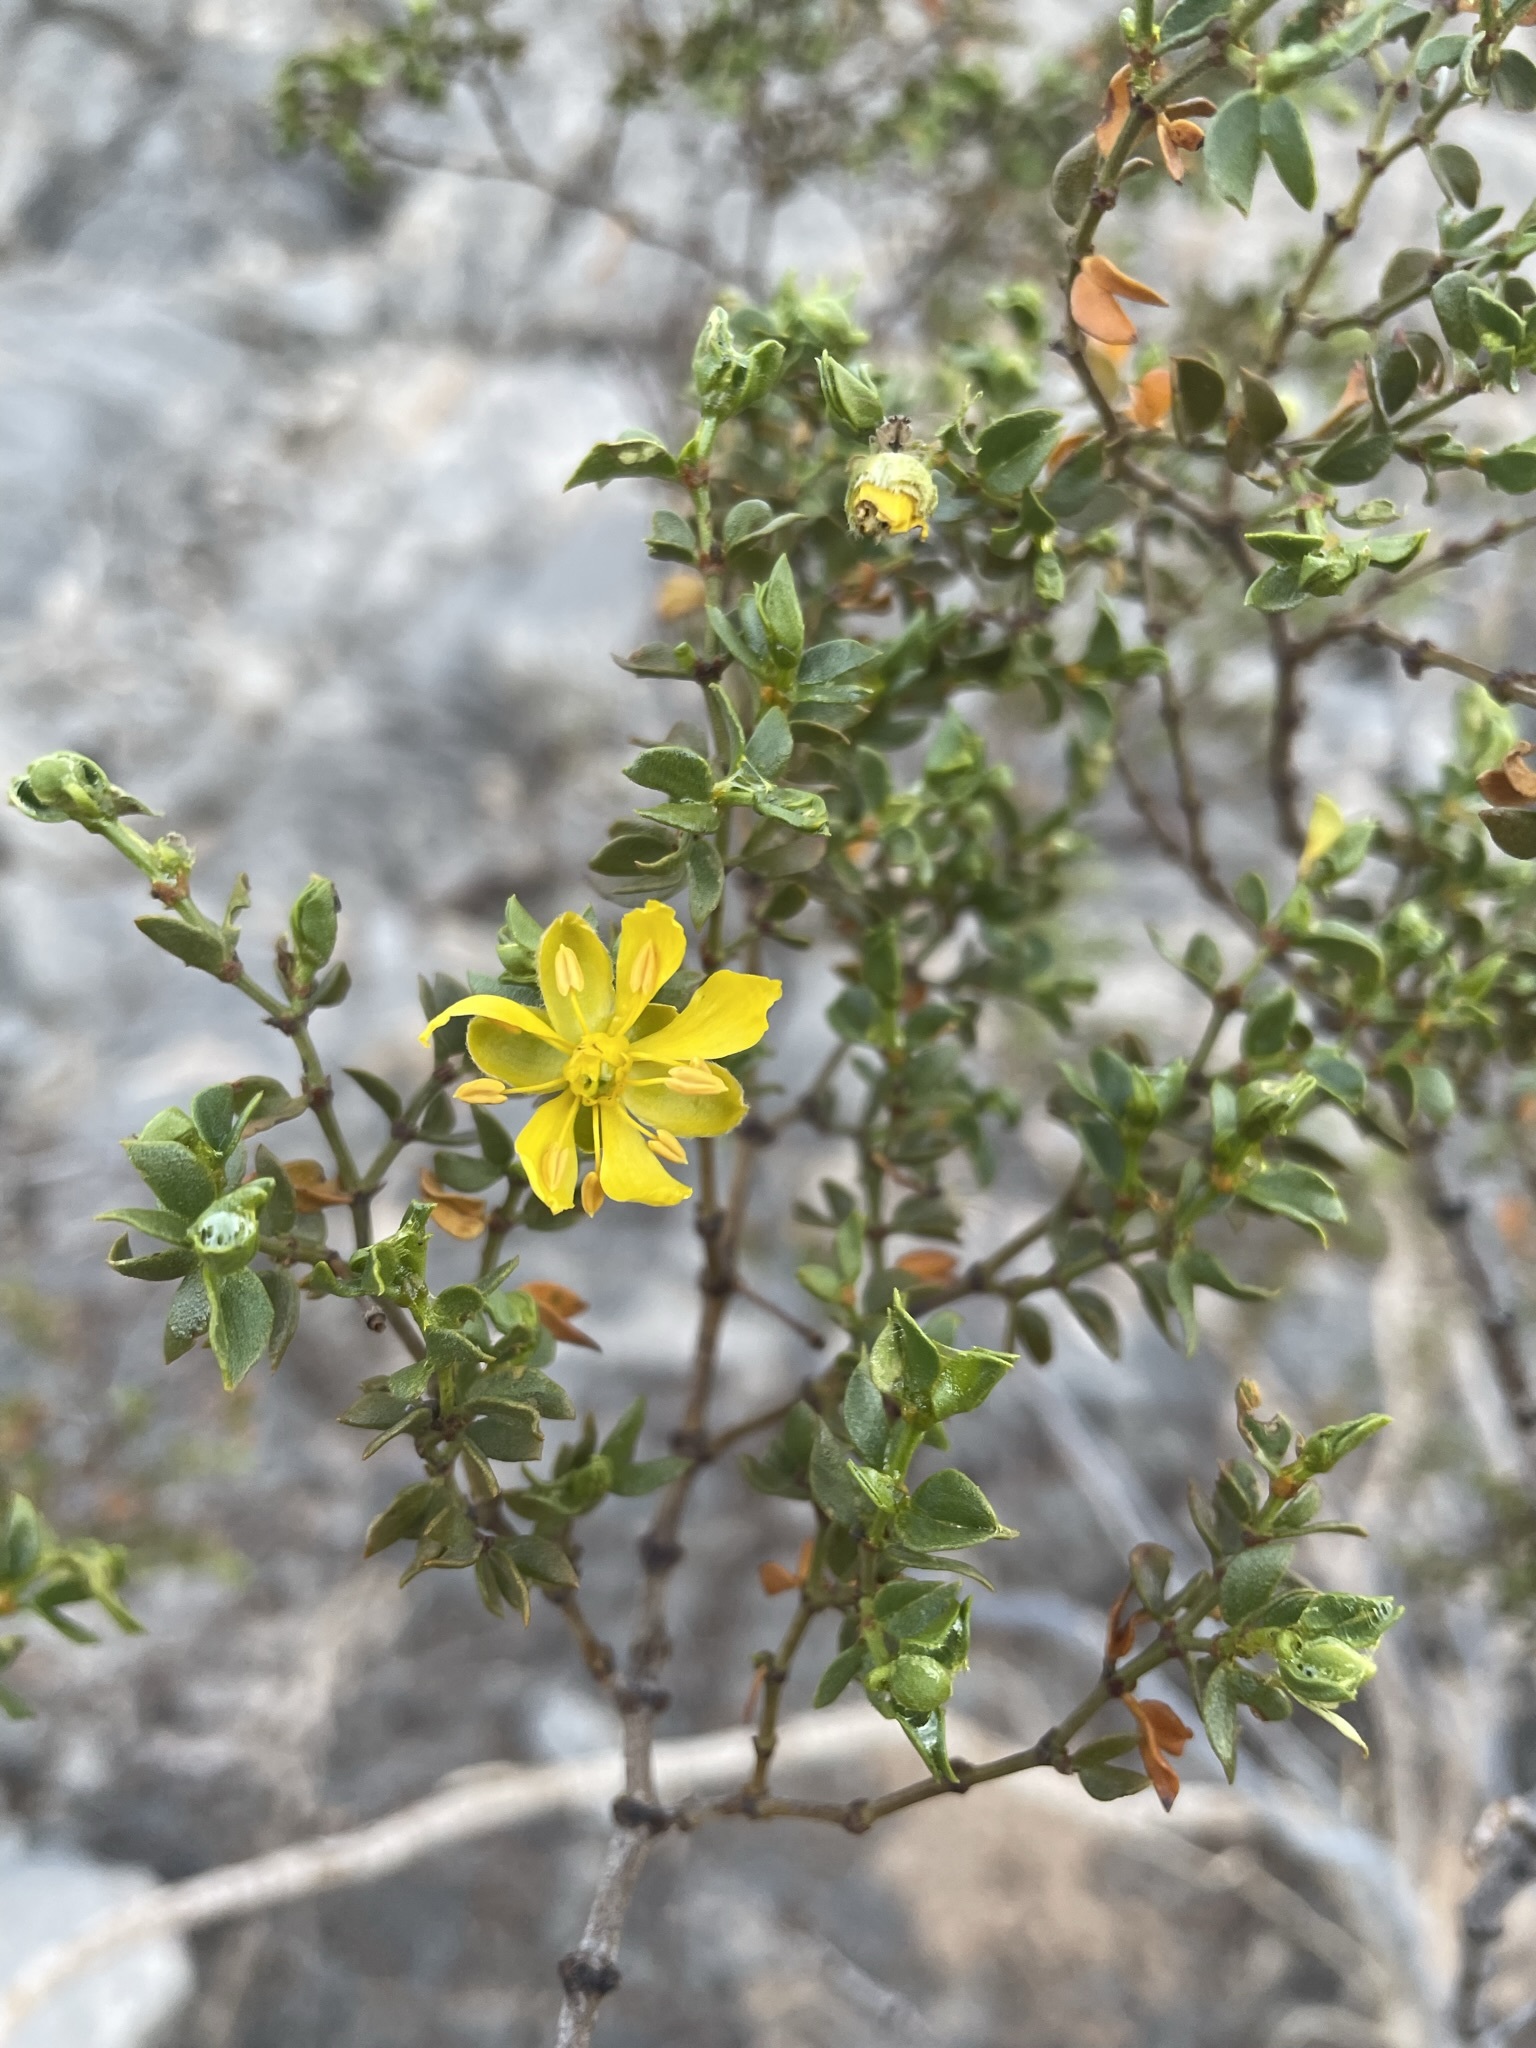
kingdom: Plantae
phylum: Tracheophyta
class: Magnoliopsida
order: Zygophyllales
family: Zygophyllaceae
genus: Larrea
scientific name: Larrea tridentata
